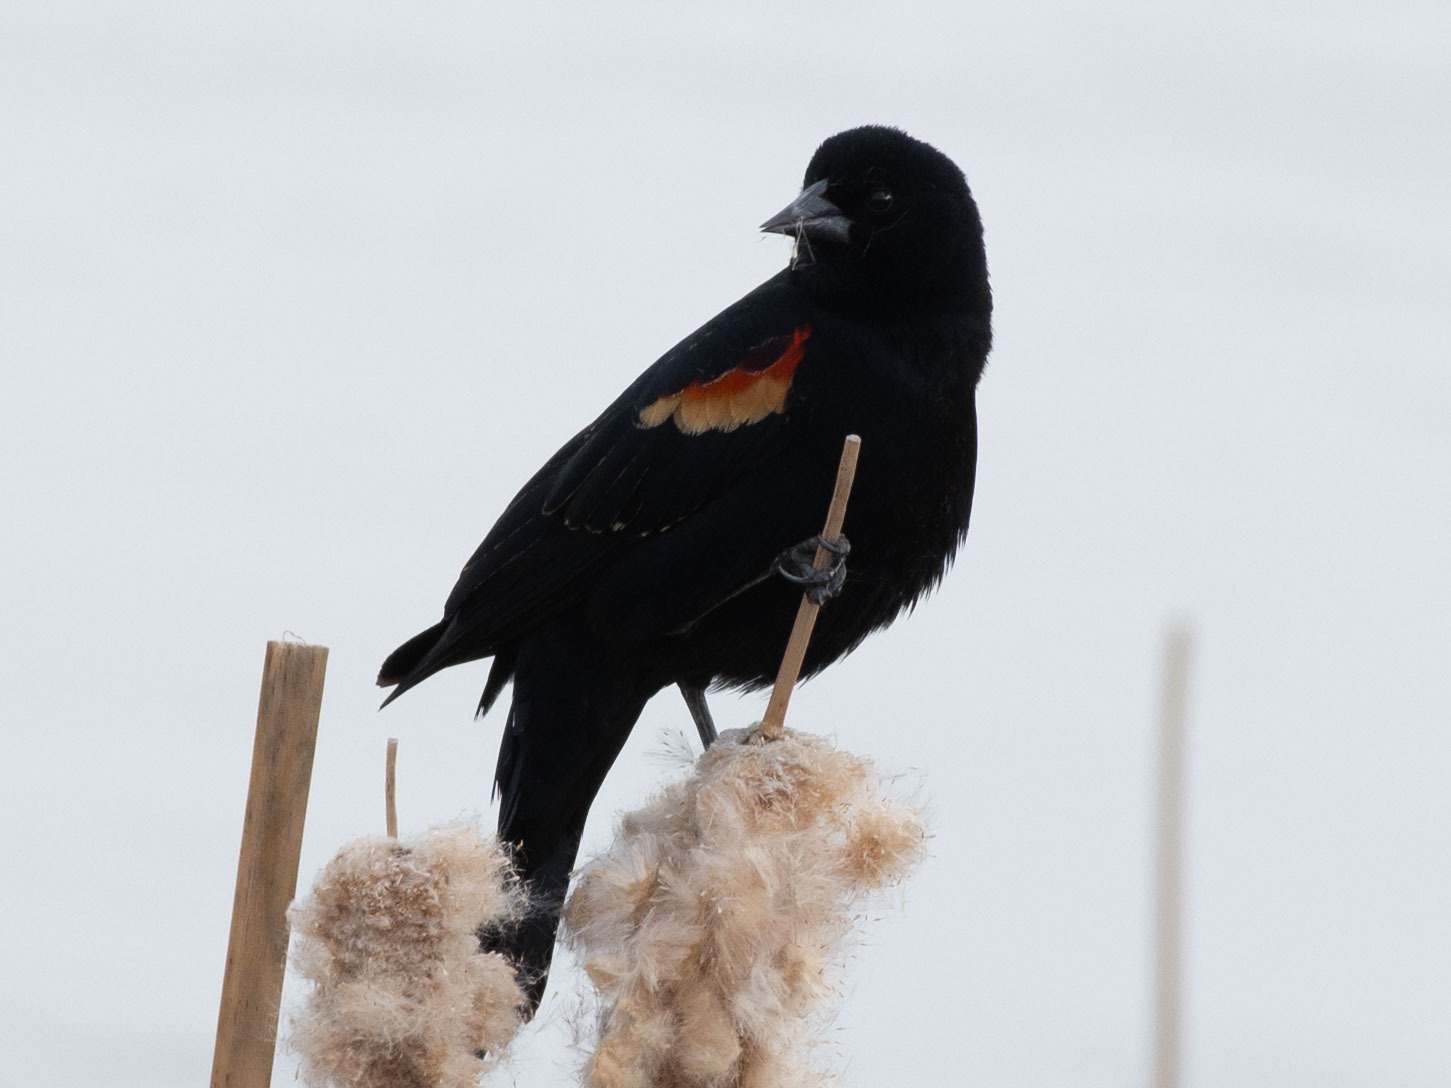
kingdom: Animalia
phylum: Chordata
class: Aves
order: Passeriformes
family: Icteridae
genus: Agelaius
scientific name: Agelaius phoeniceus
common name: Red-winged blackbird
